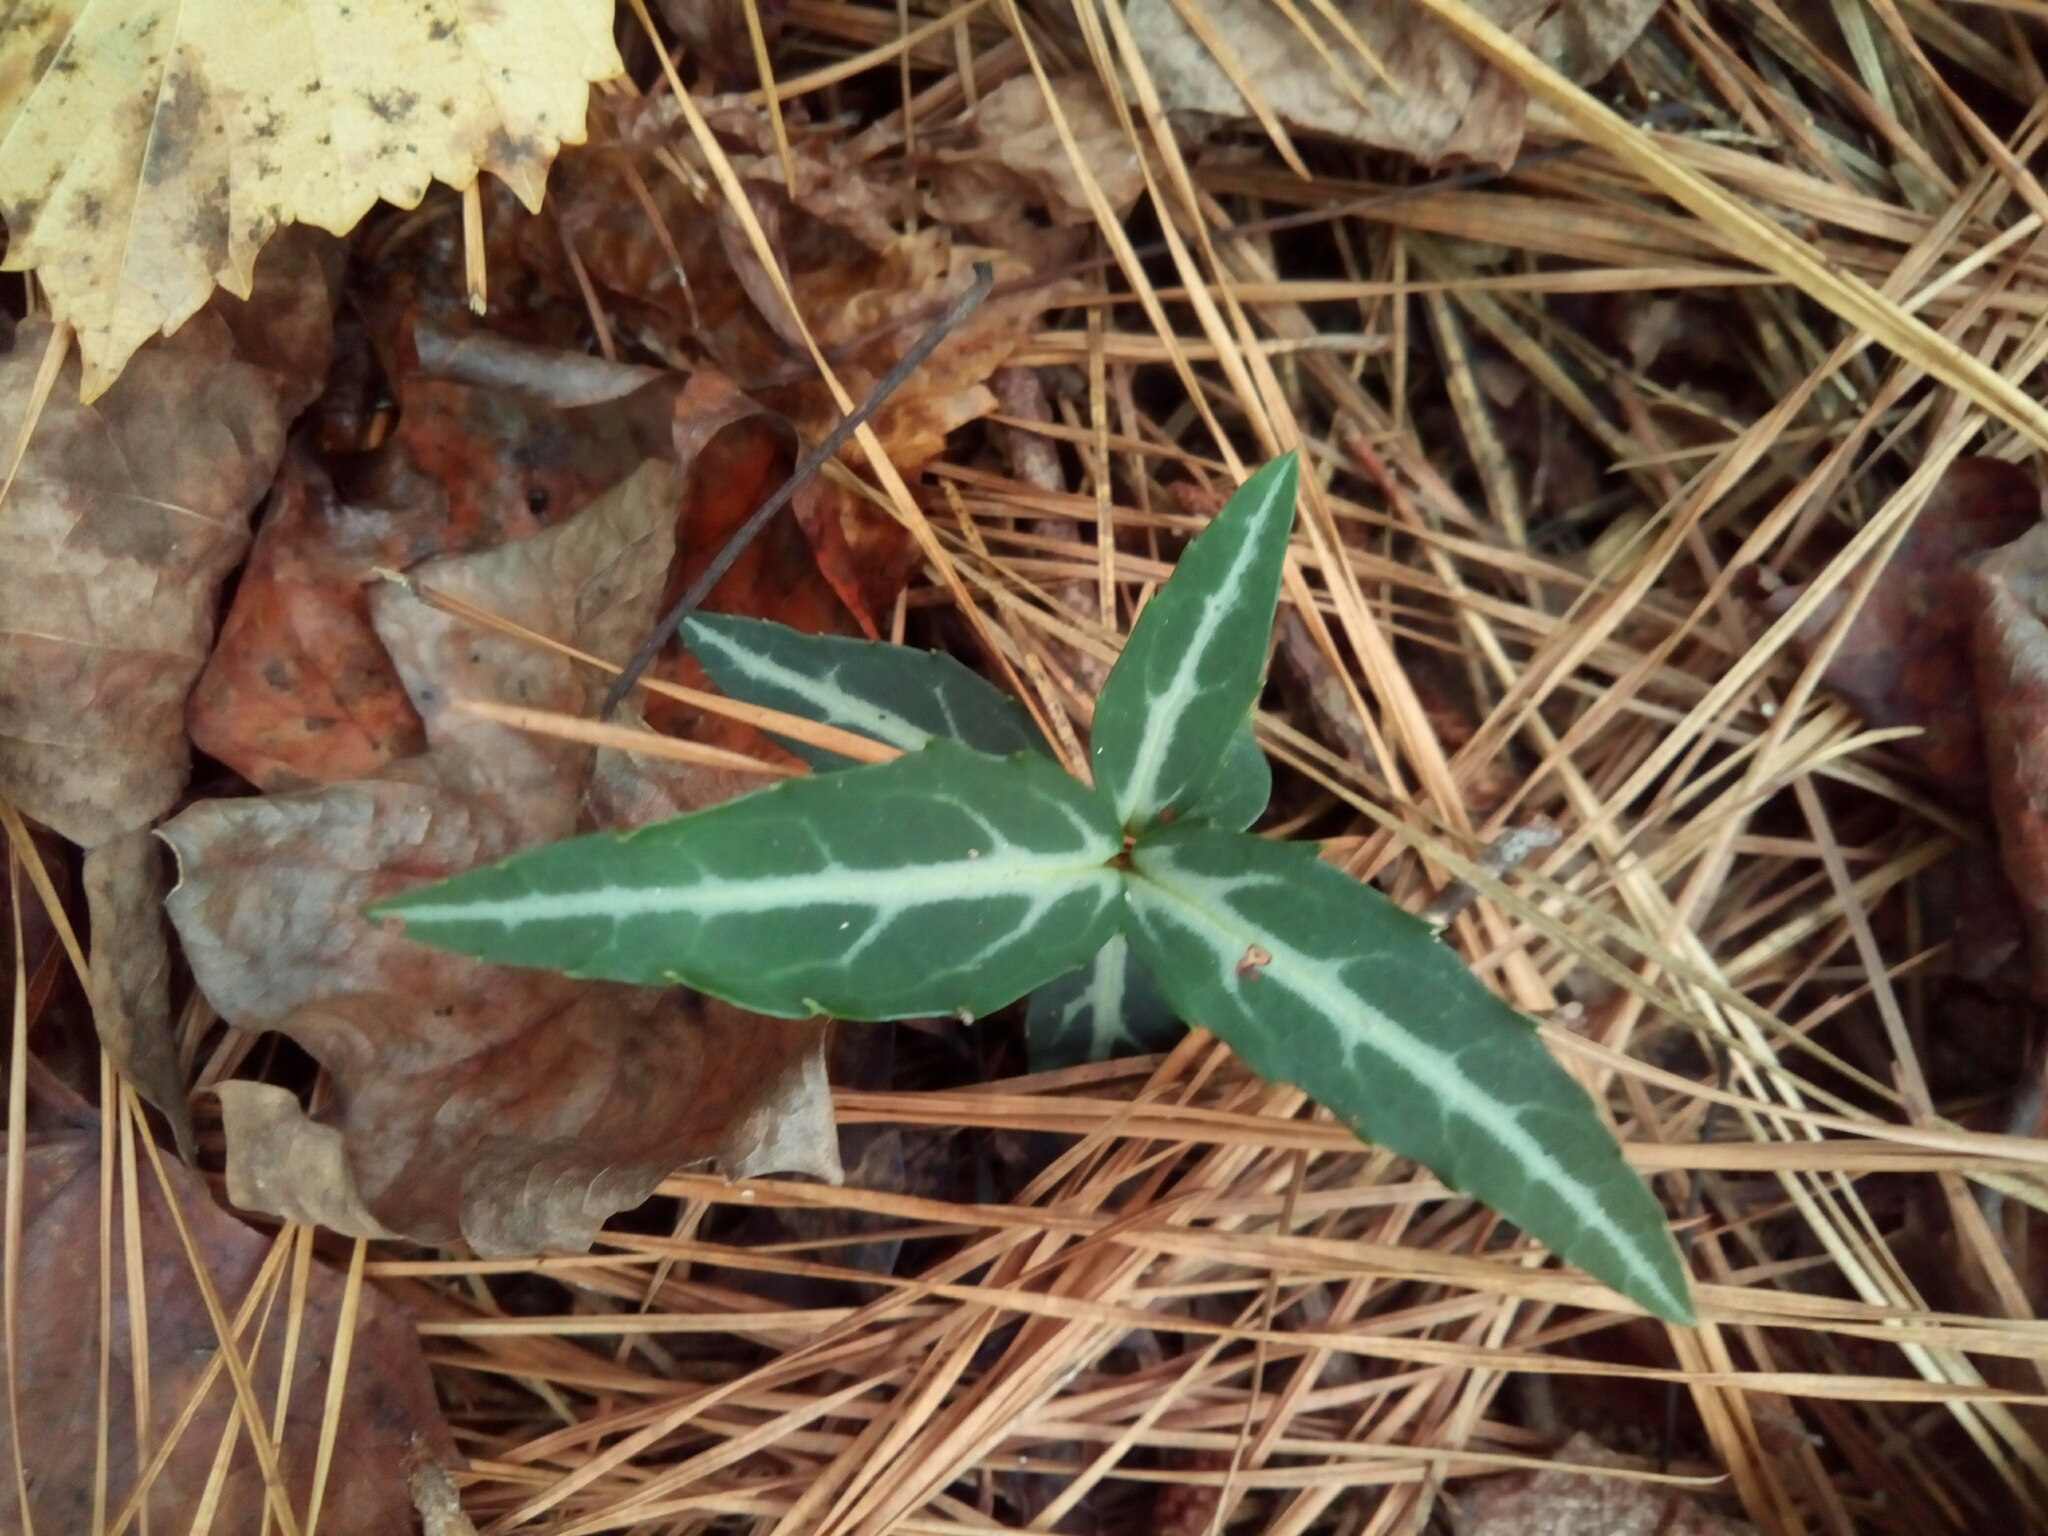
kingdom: Plantae
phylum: Tracheophyta
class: Magnoliopsida
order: Ericales
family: Ericaceae
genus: Chimaphila
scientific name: Chimaphila maculata
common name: Spotted pipsissewa
